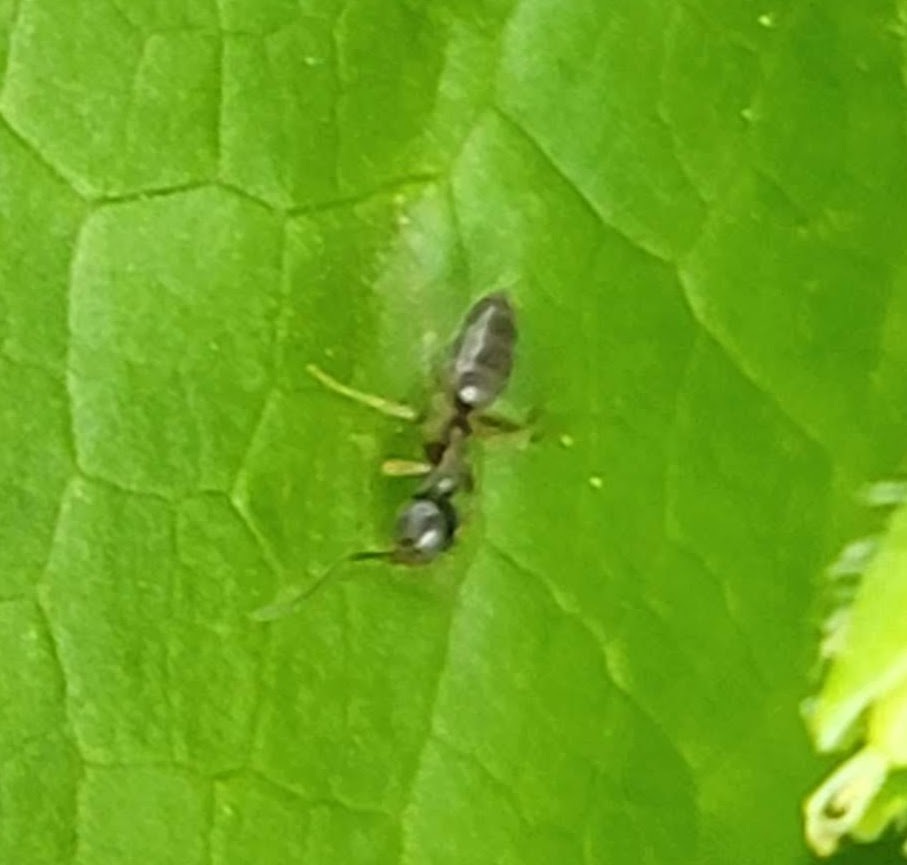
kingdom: Animalia
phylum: Arthropoda
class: Insecta
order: Hymenoptera
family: Formicidae
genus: Tapinoma
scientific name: Tapinoma sessile
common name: Odorous house ant
